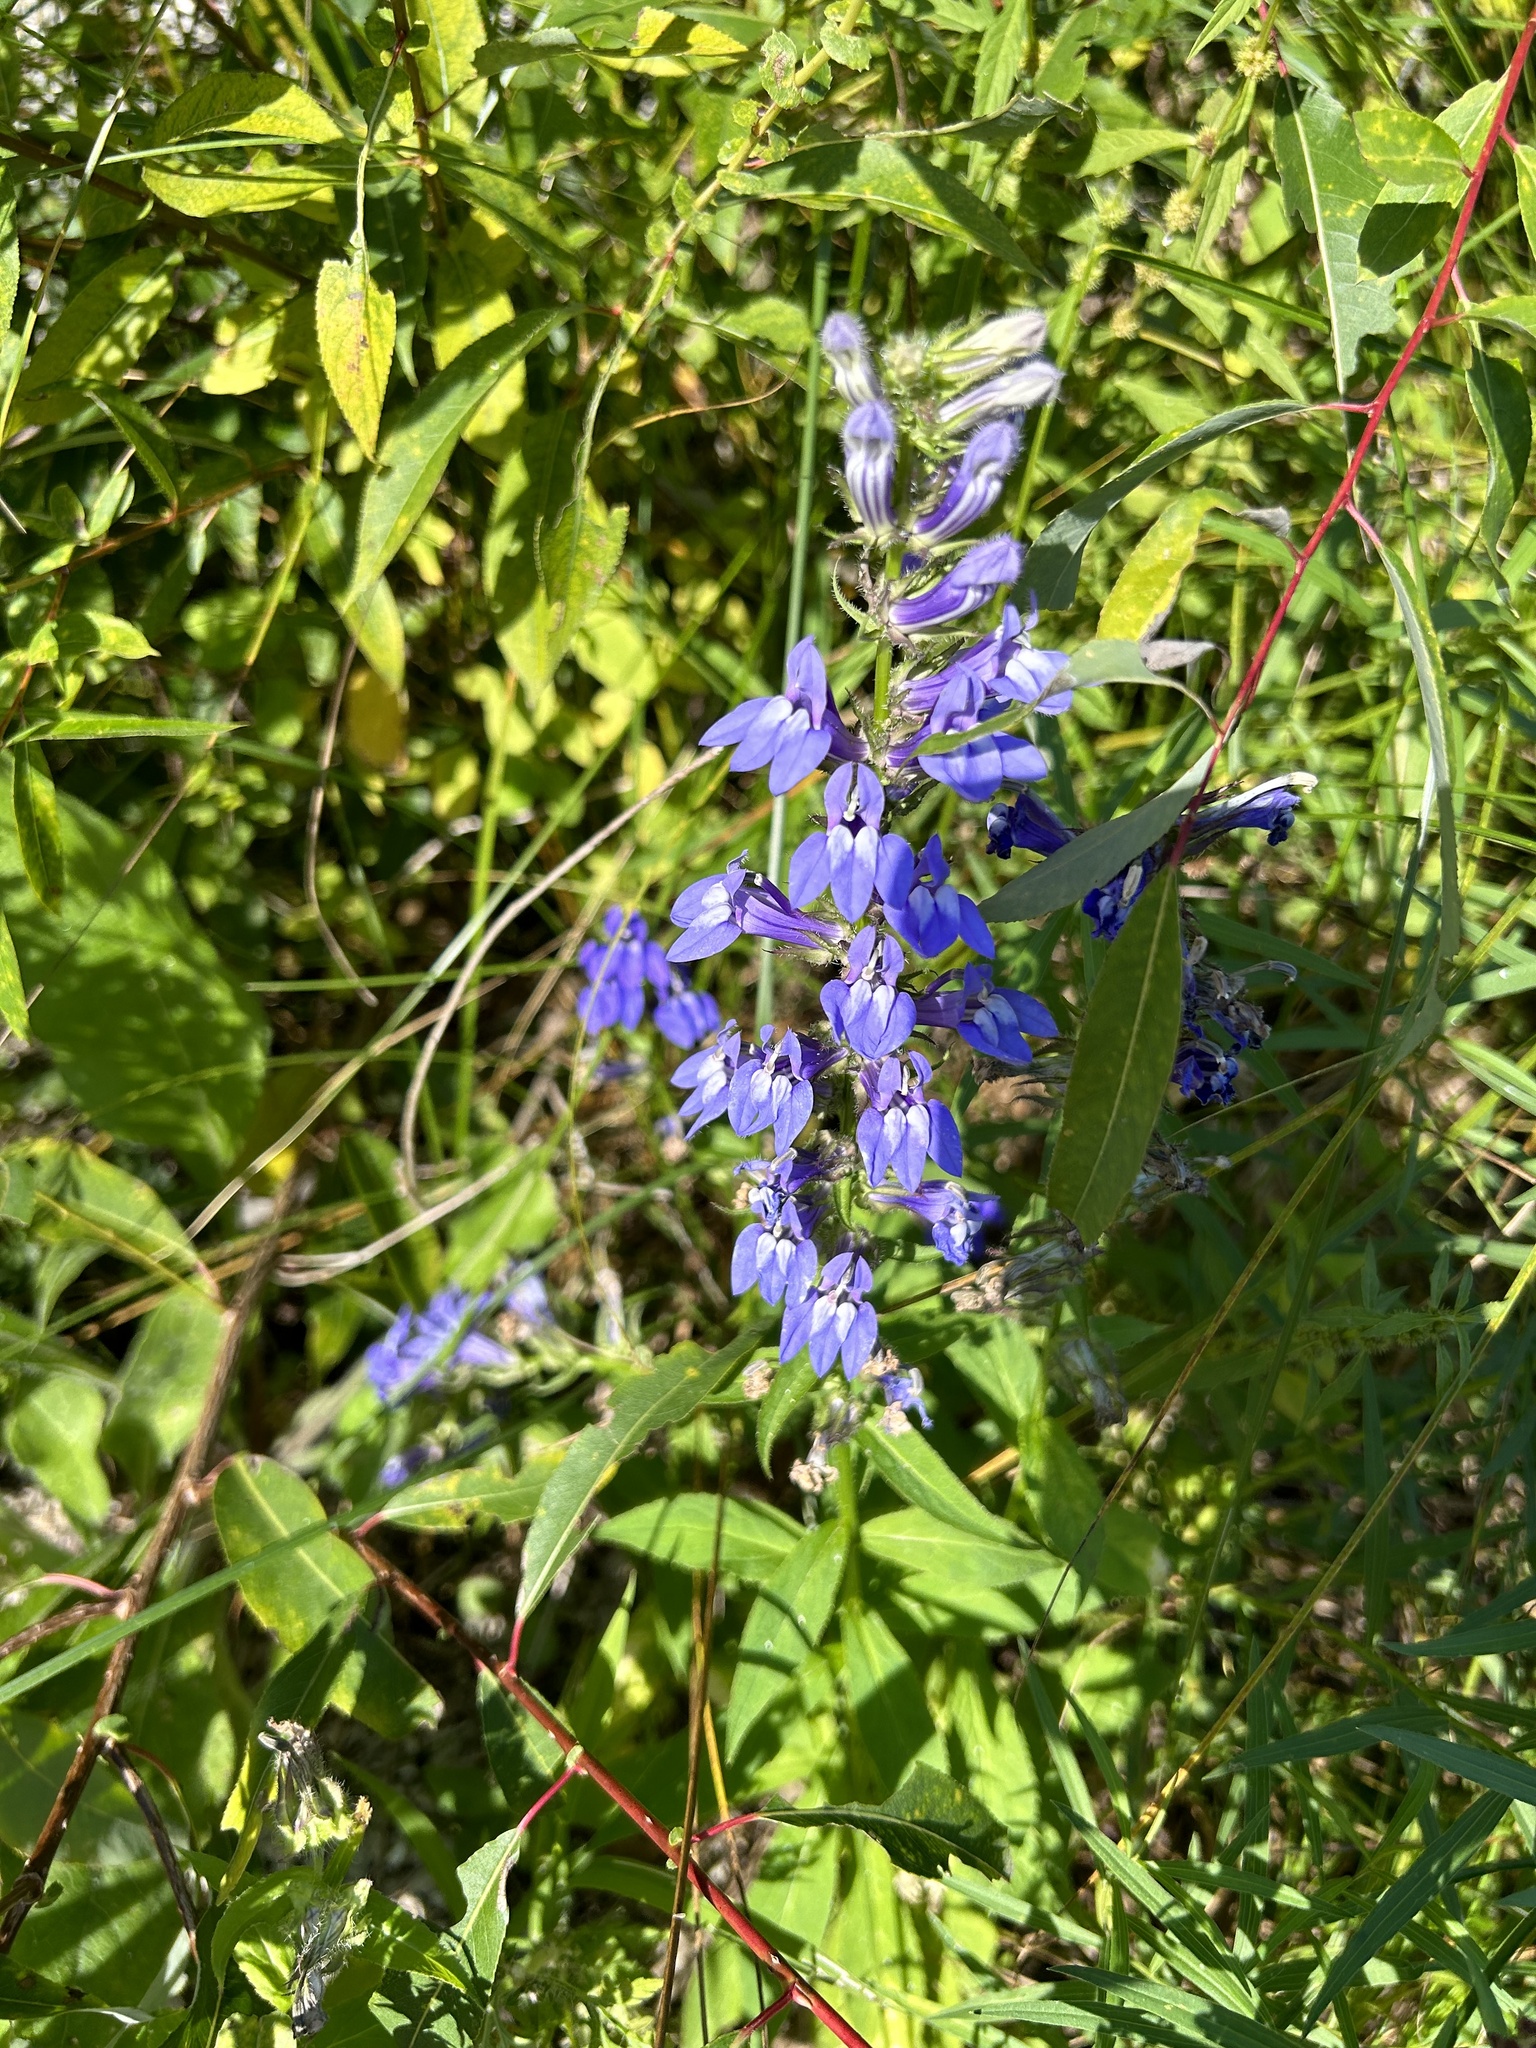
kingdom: Plantae
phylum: Tracheophyta
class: Magnoliopsida
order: Asterales
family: Campanulaceae
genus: Lobelia
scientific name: Lobelia siphilitica
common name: Great lobelia
